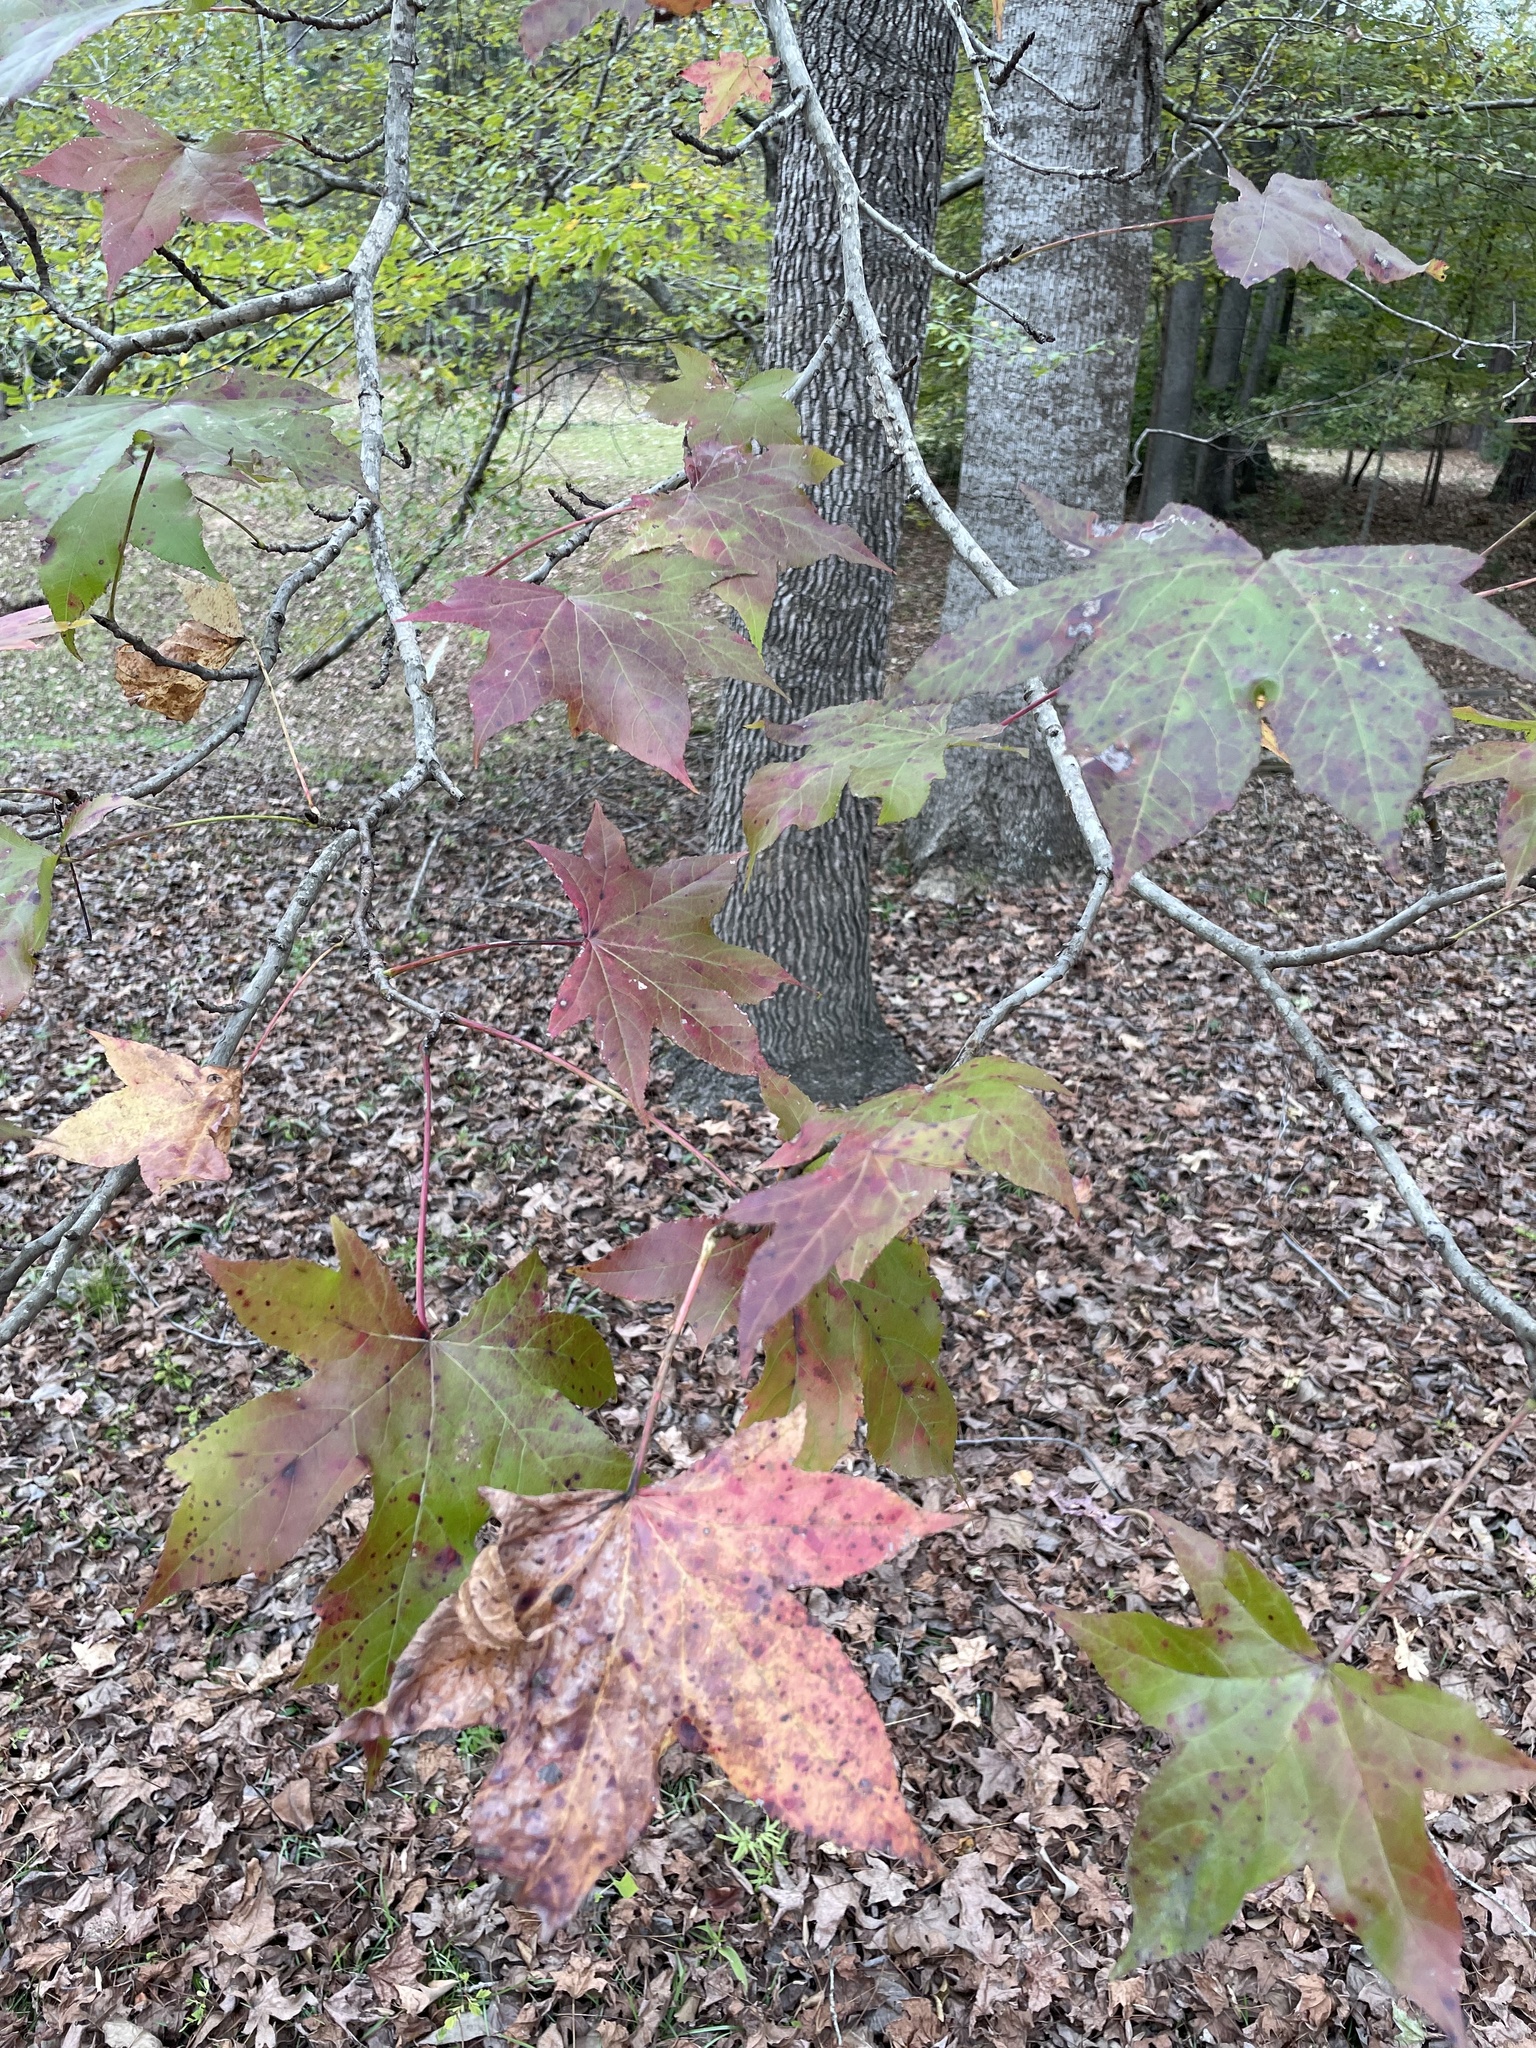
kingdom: Plantae
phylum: Tracheophyta
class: Magnoliopsida
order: Saxifragales
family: Altingiaceae
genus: Liquidambar
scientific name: Liquidambar styraciflua
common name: Sweet gum
